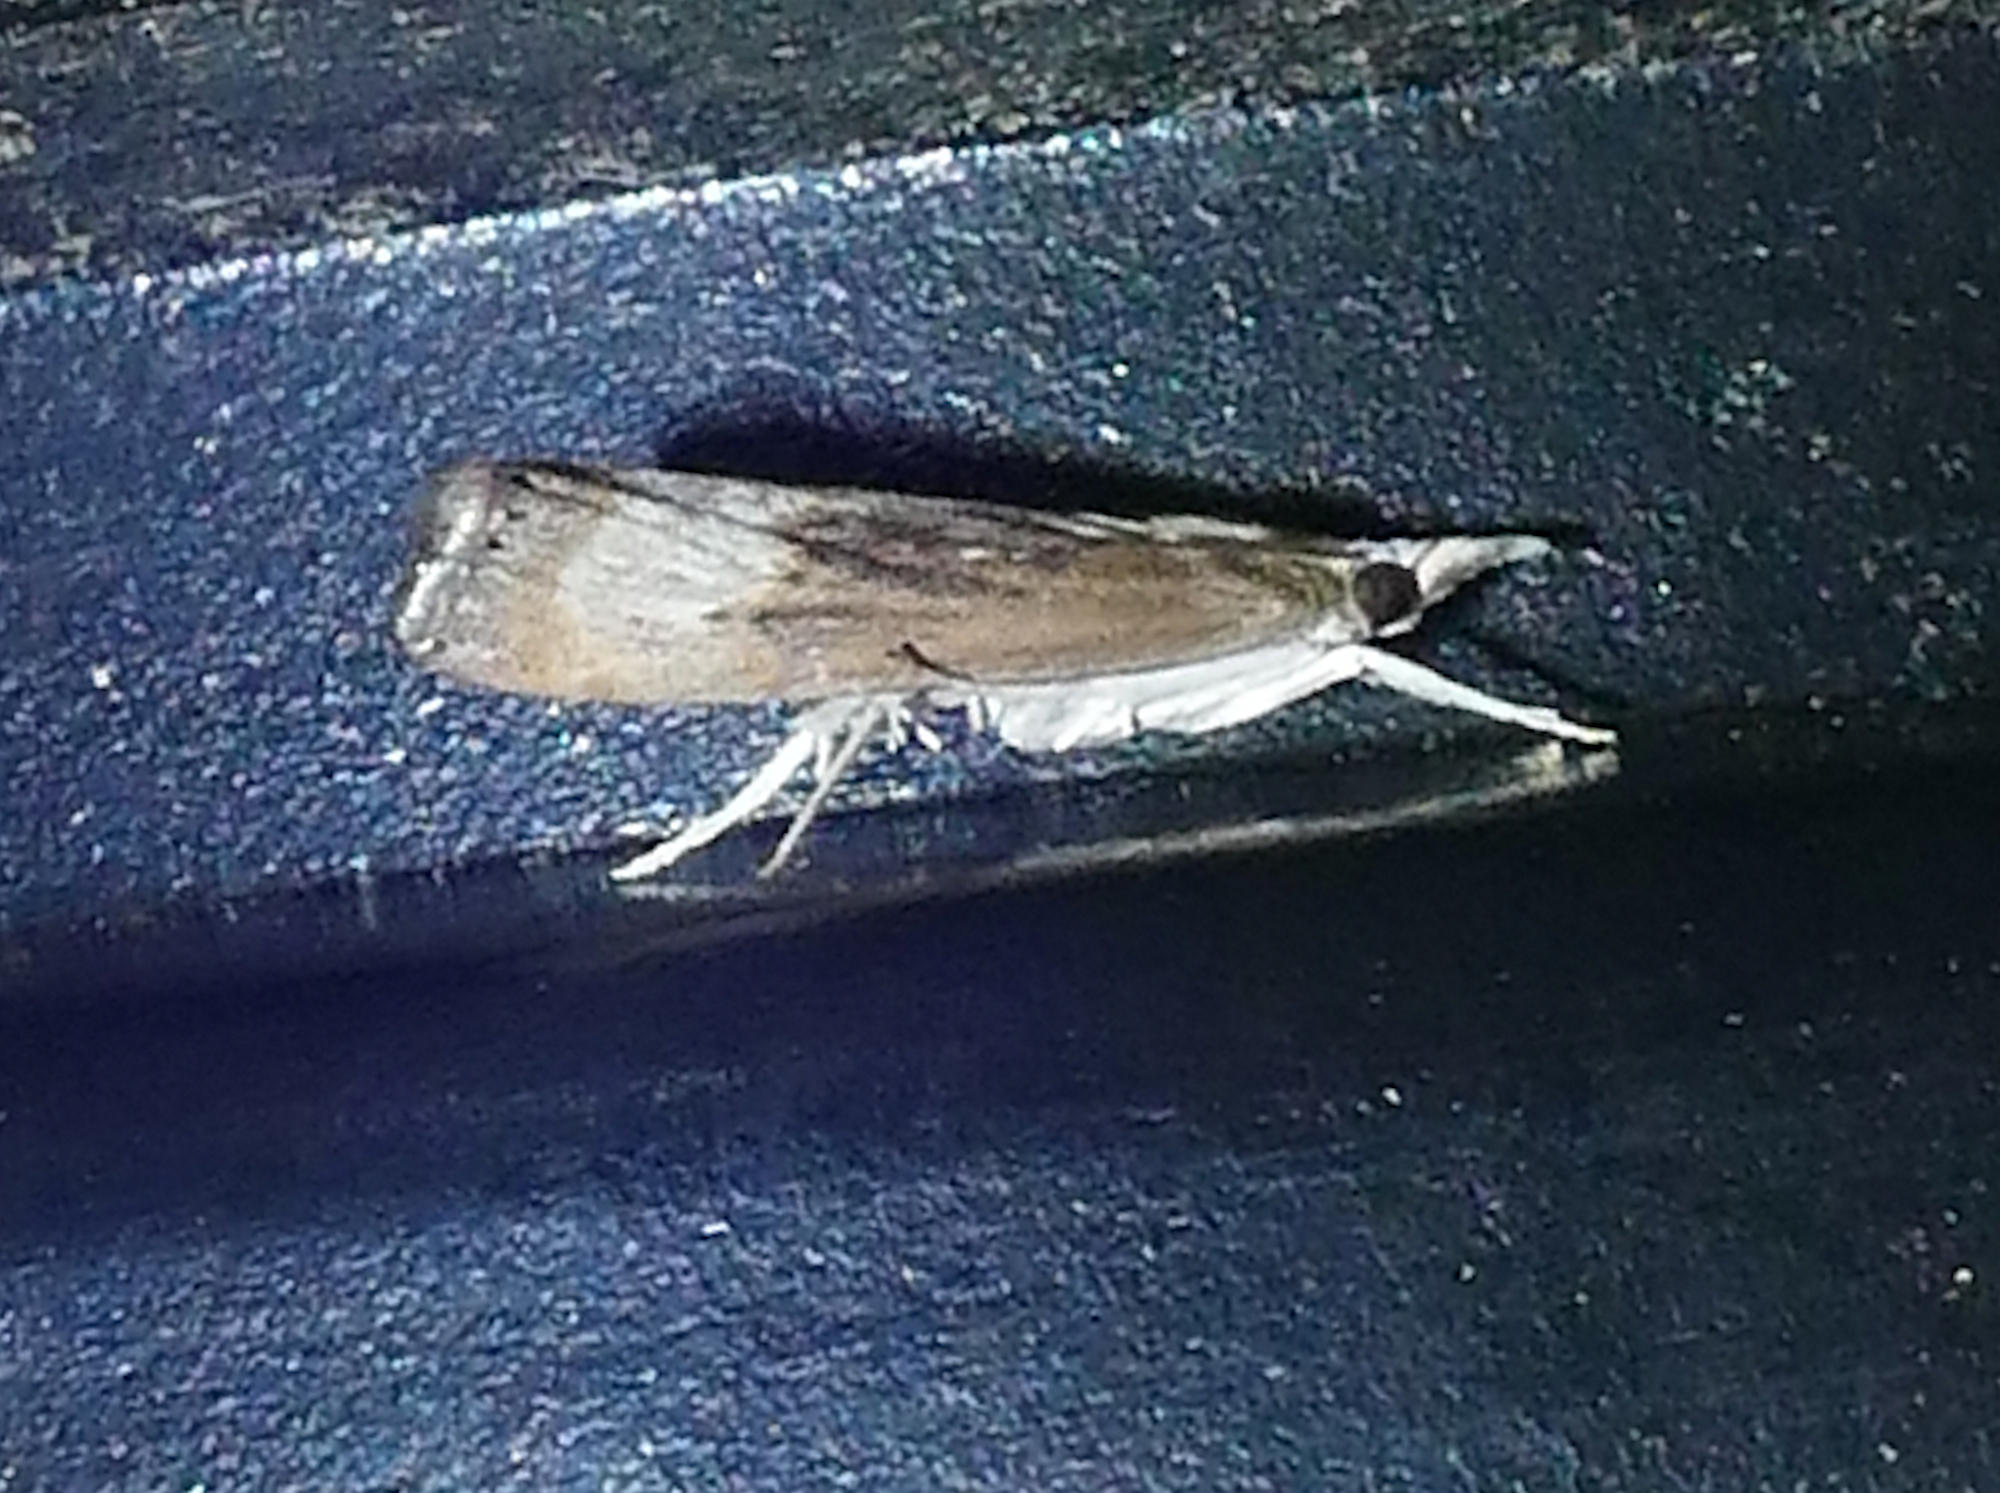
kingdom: Animalia
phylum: Arthropoda
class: Insecta
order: Lepidoptera
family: Crambidae
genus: Parapediasia
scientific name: Parapediasia teterellus
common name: Bluegrass webworm moth
